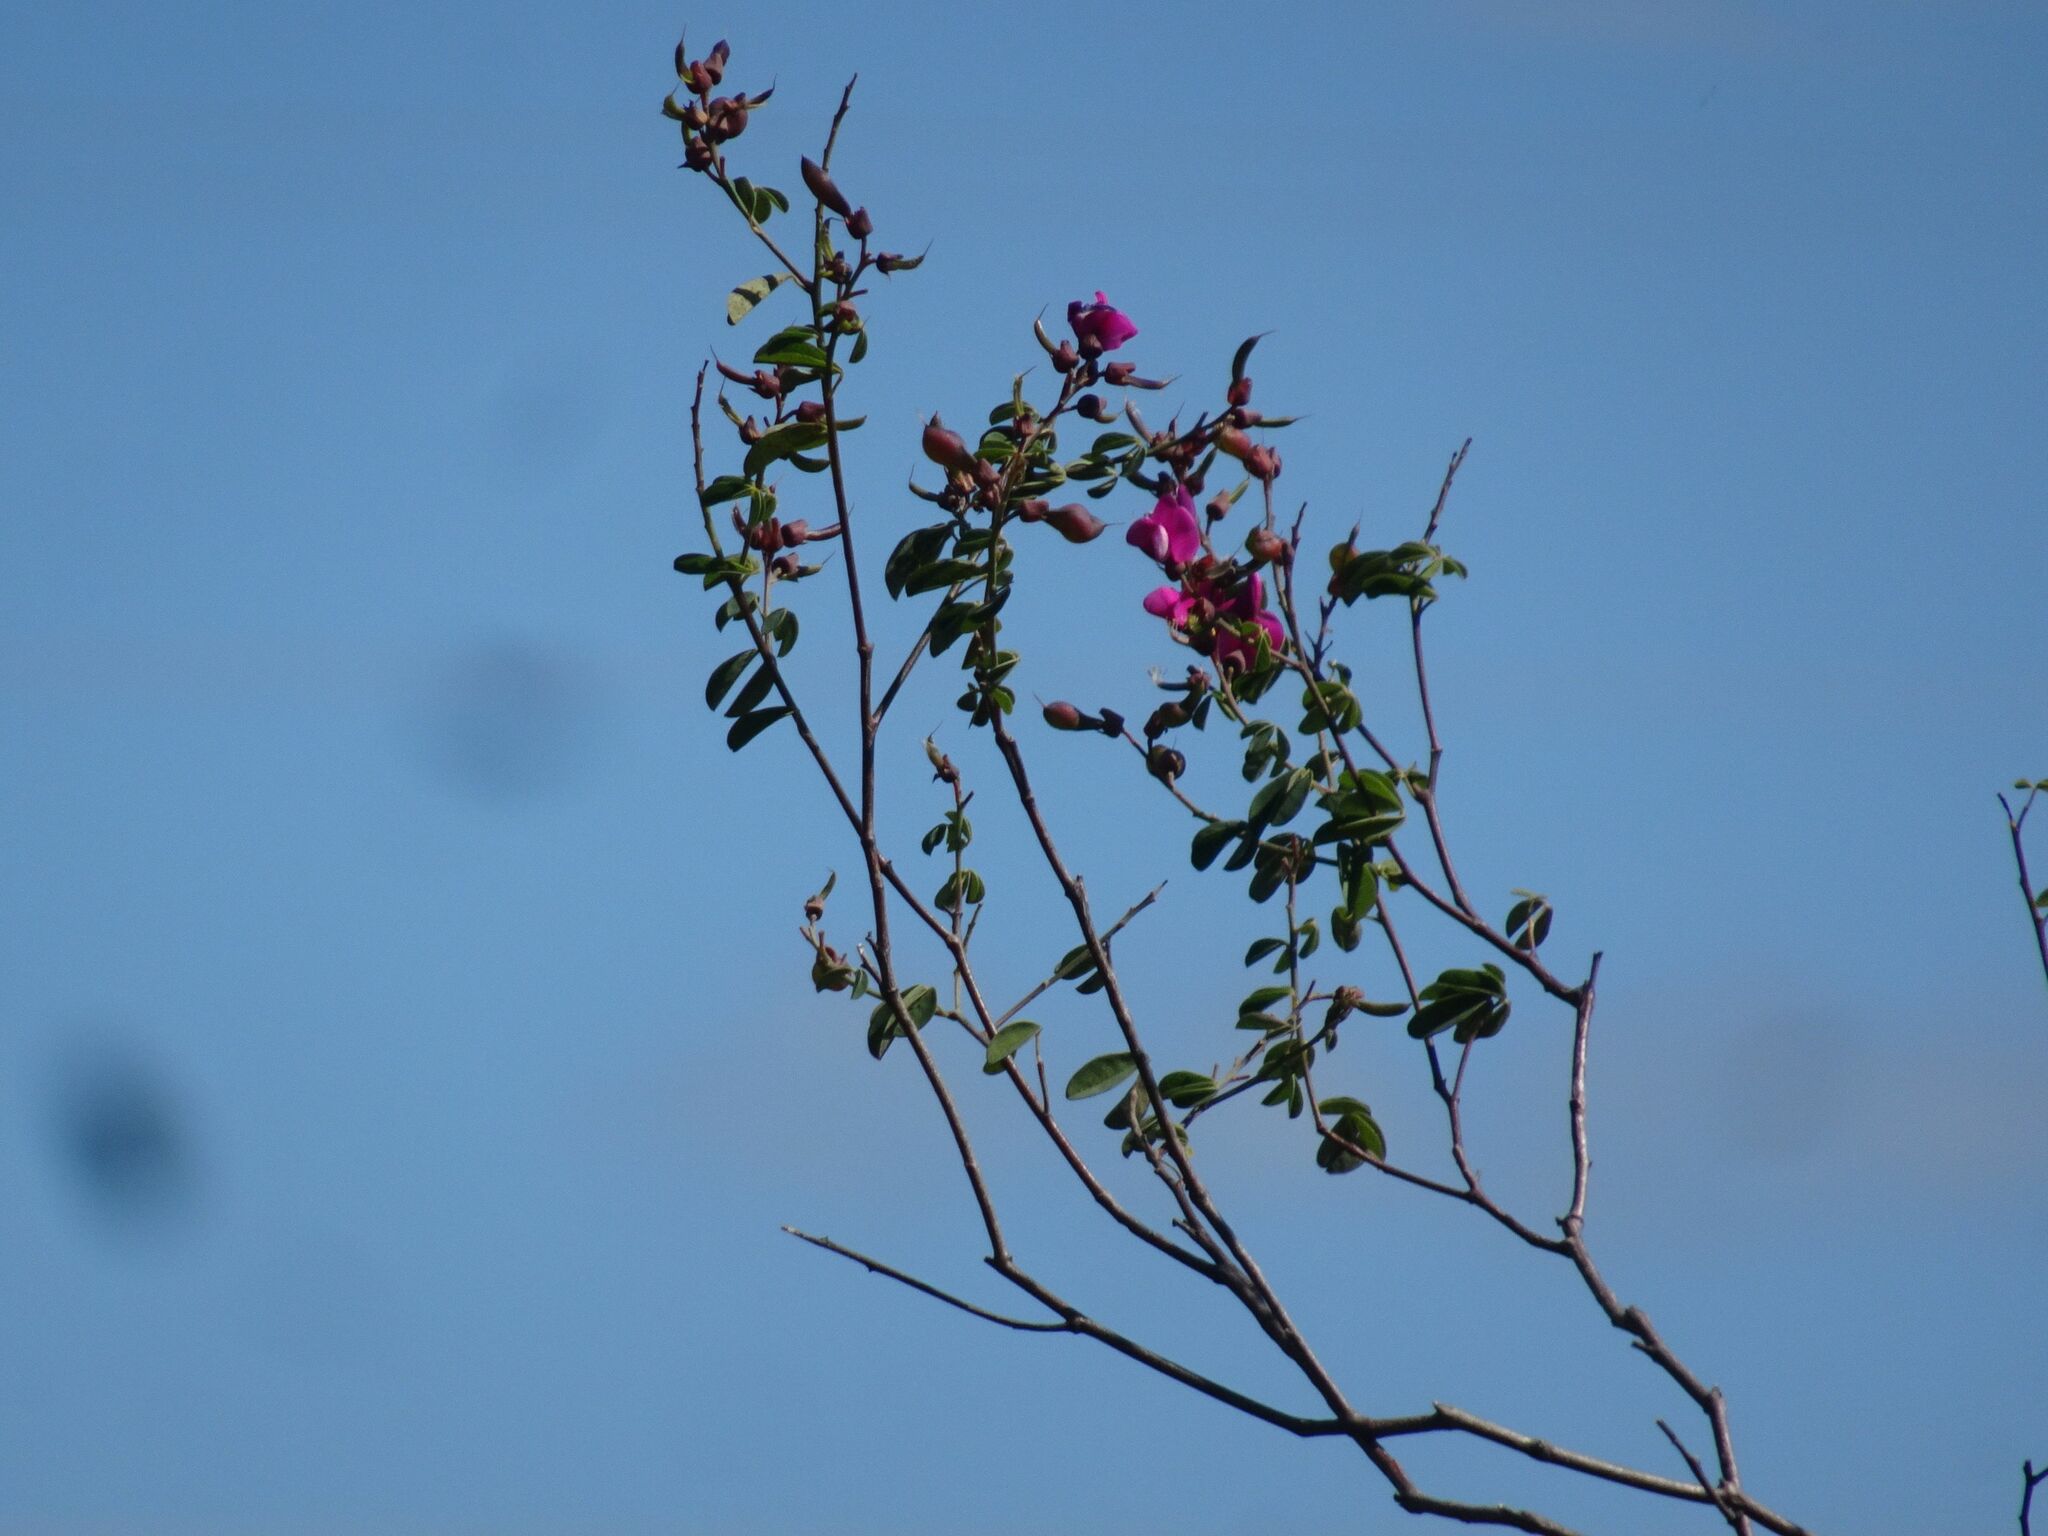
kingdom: Plantae
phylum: Tracheophyta
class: Magnoliopsida
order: Fabales
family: Fabaceae
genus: Hypocalyptus
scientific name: Hypocalyptus coluteoides
